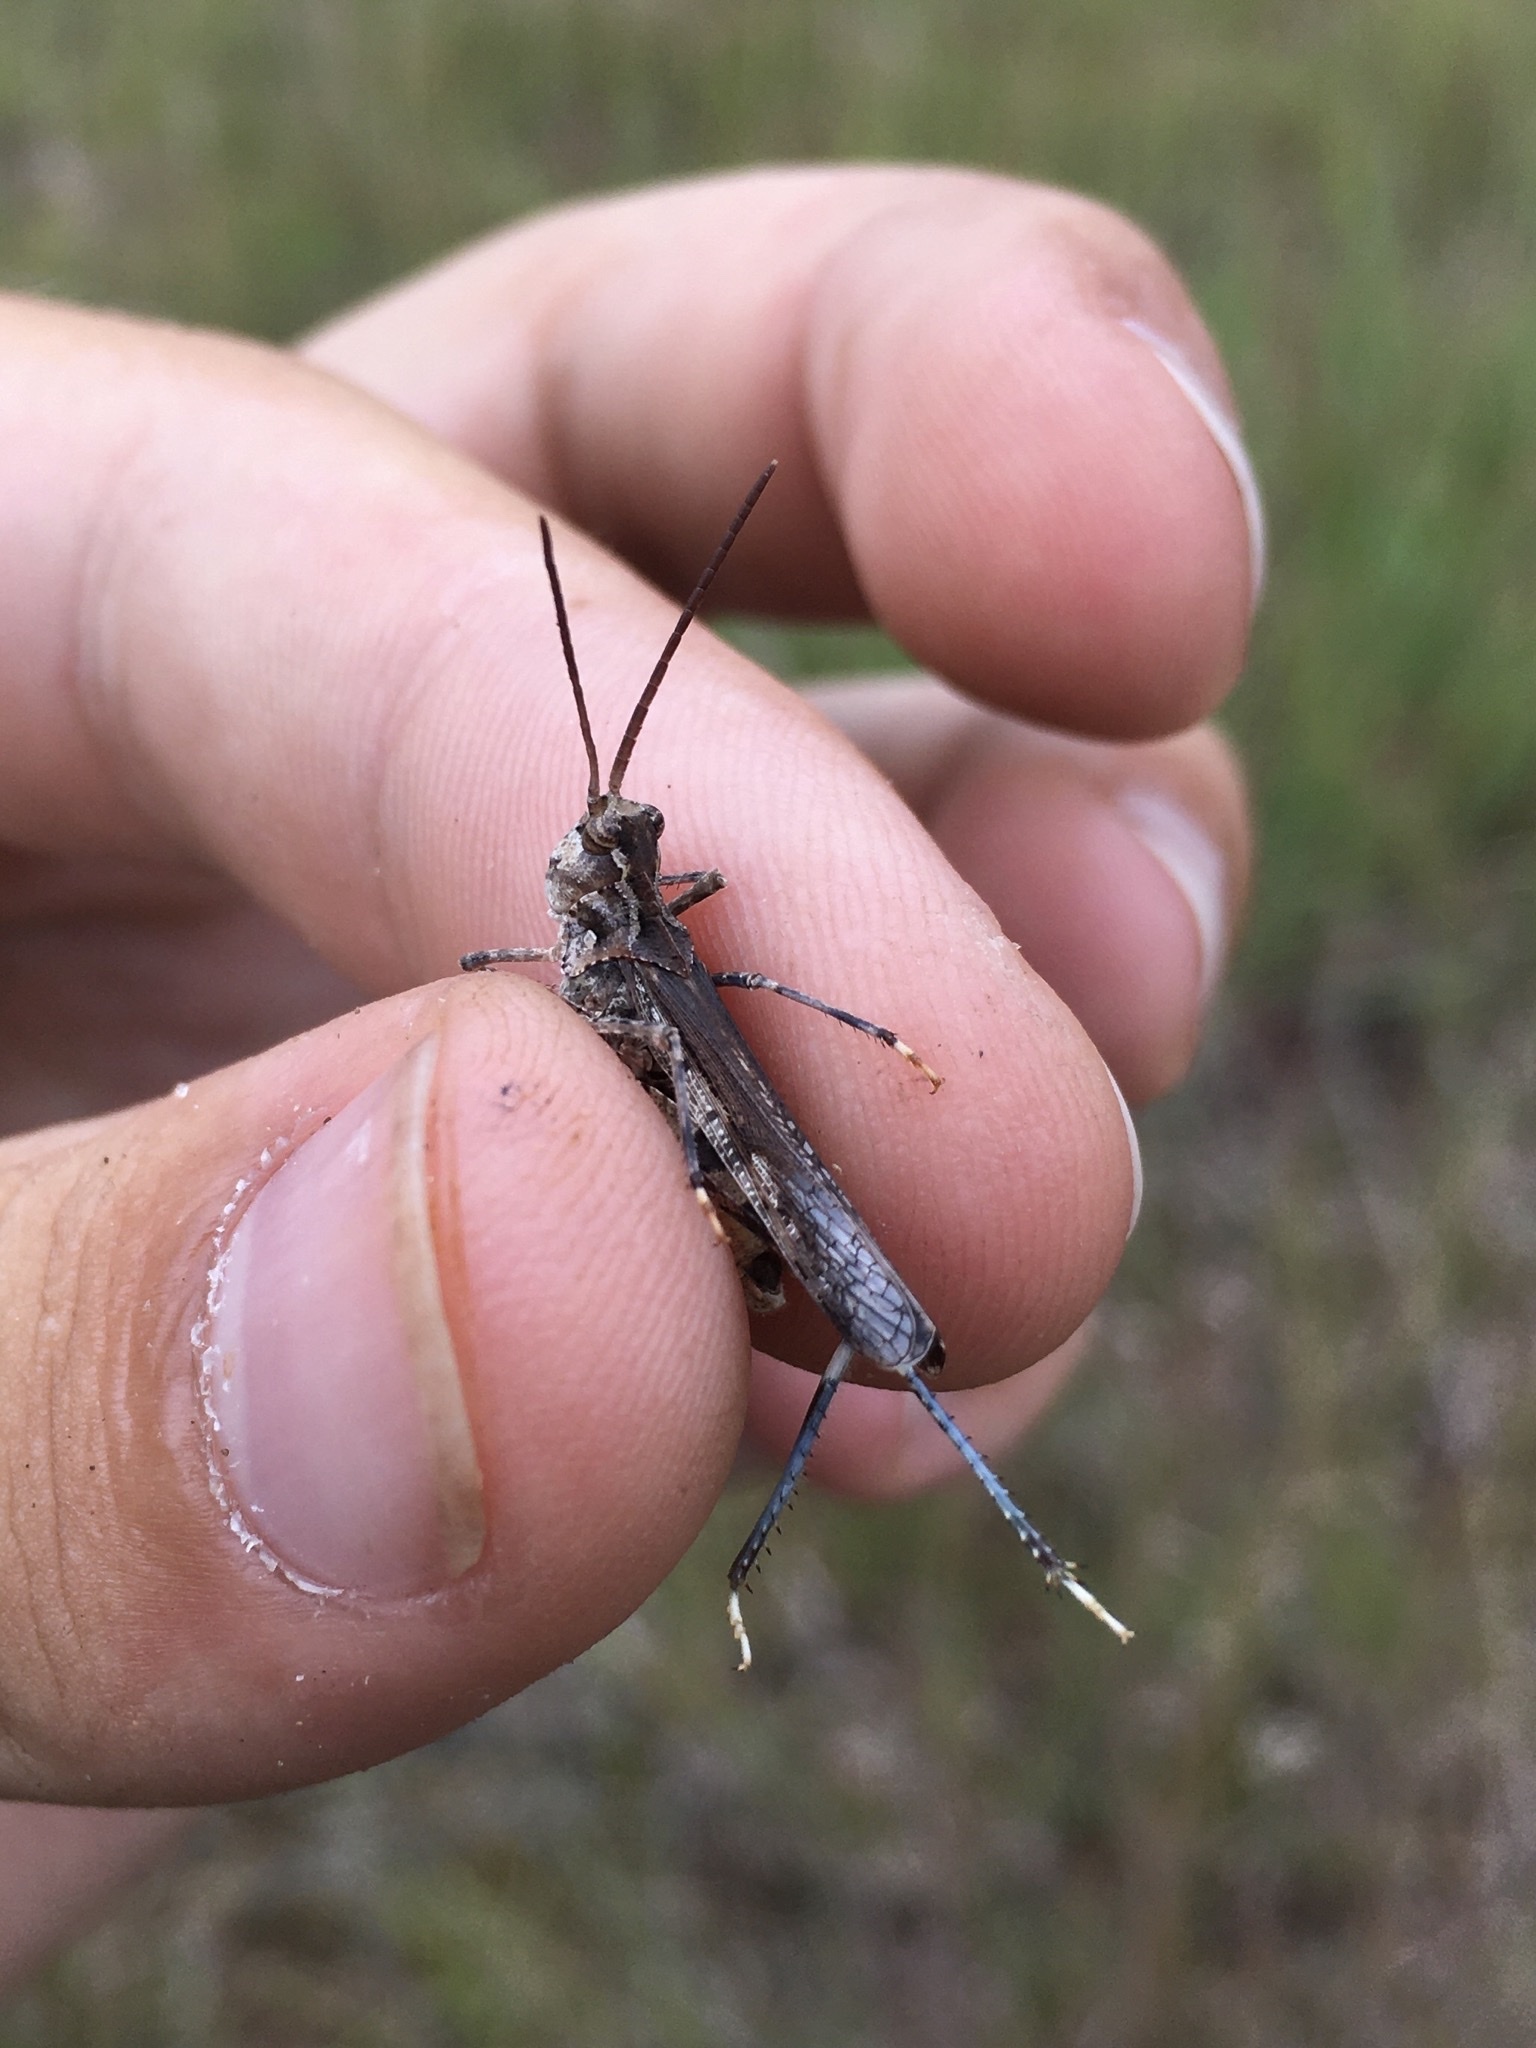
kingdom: Animalia
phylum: Arthropoda
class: Insecta
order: Orthoptera
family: Acrididae
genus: Psinidia
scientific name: Psinidia fenestralis
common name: Long-horned locust
